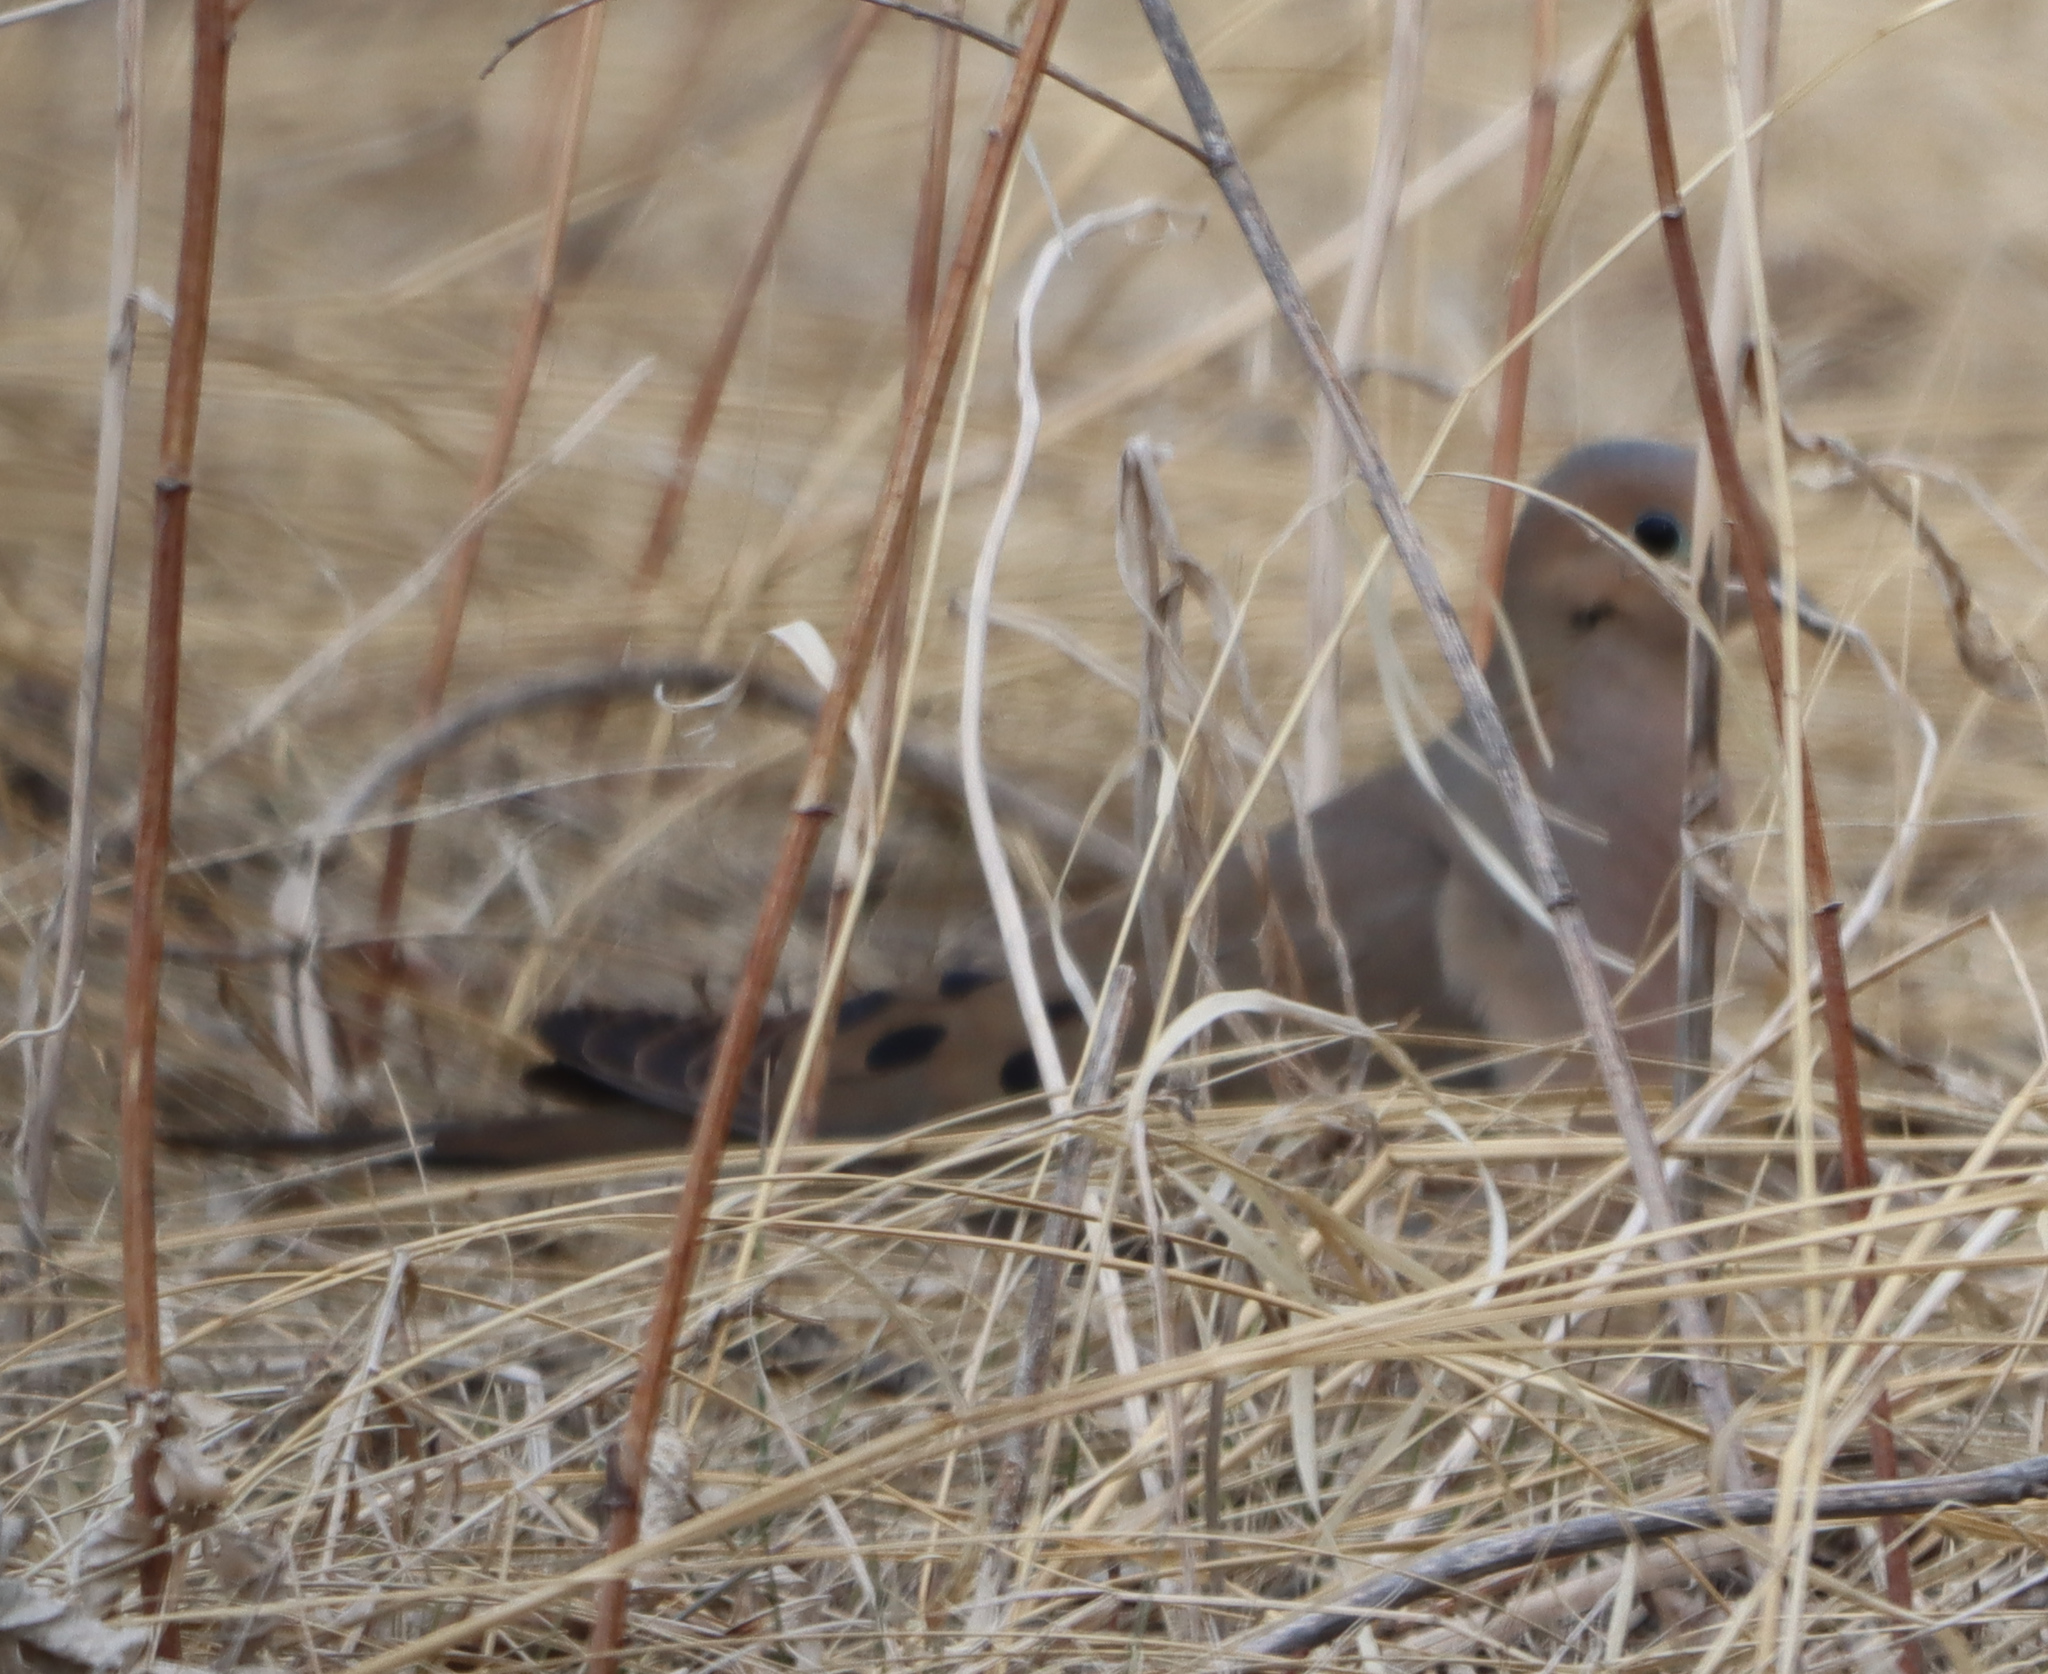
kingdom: Animalia
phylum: Chordata
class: Aves
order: Columbiformes
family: Columbidae
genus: Zenaida
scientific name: Zenaida macroura
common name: Mourning dove
